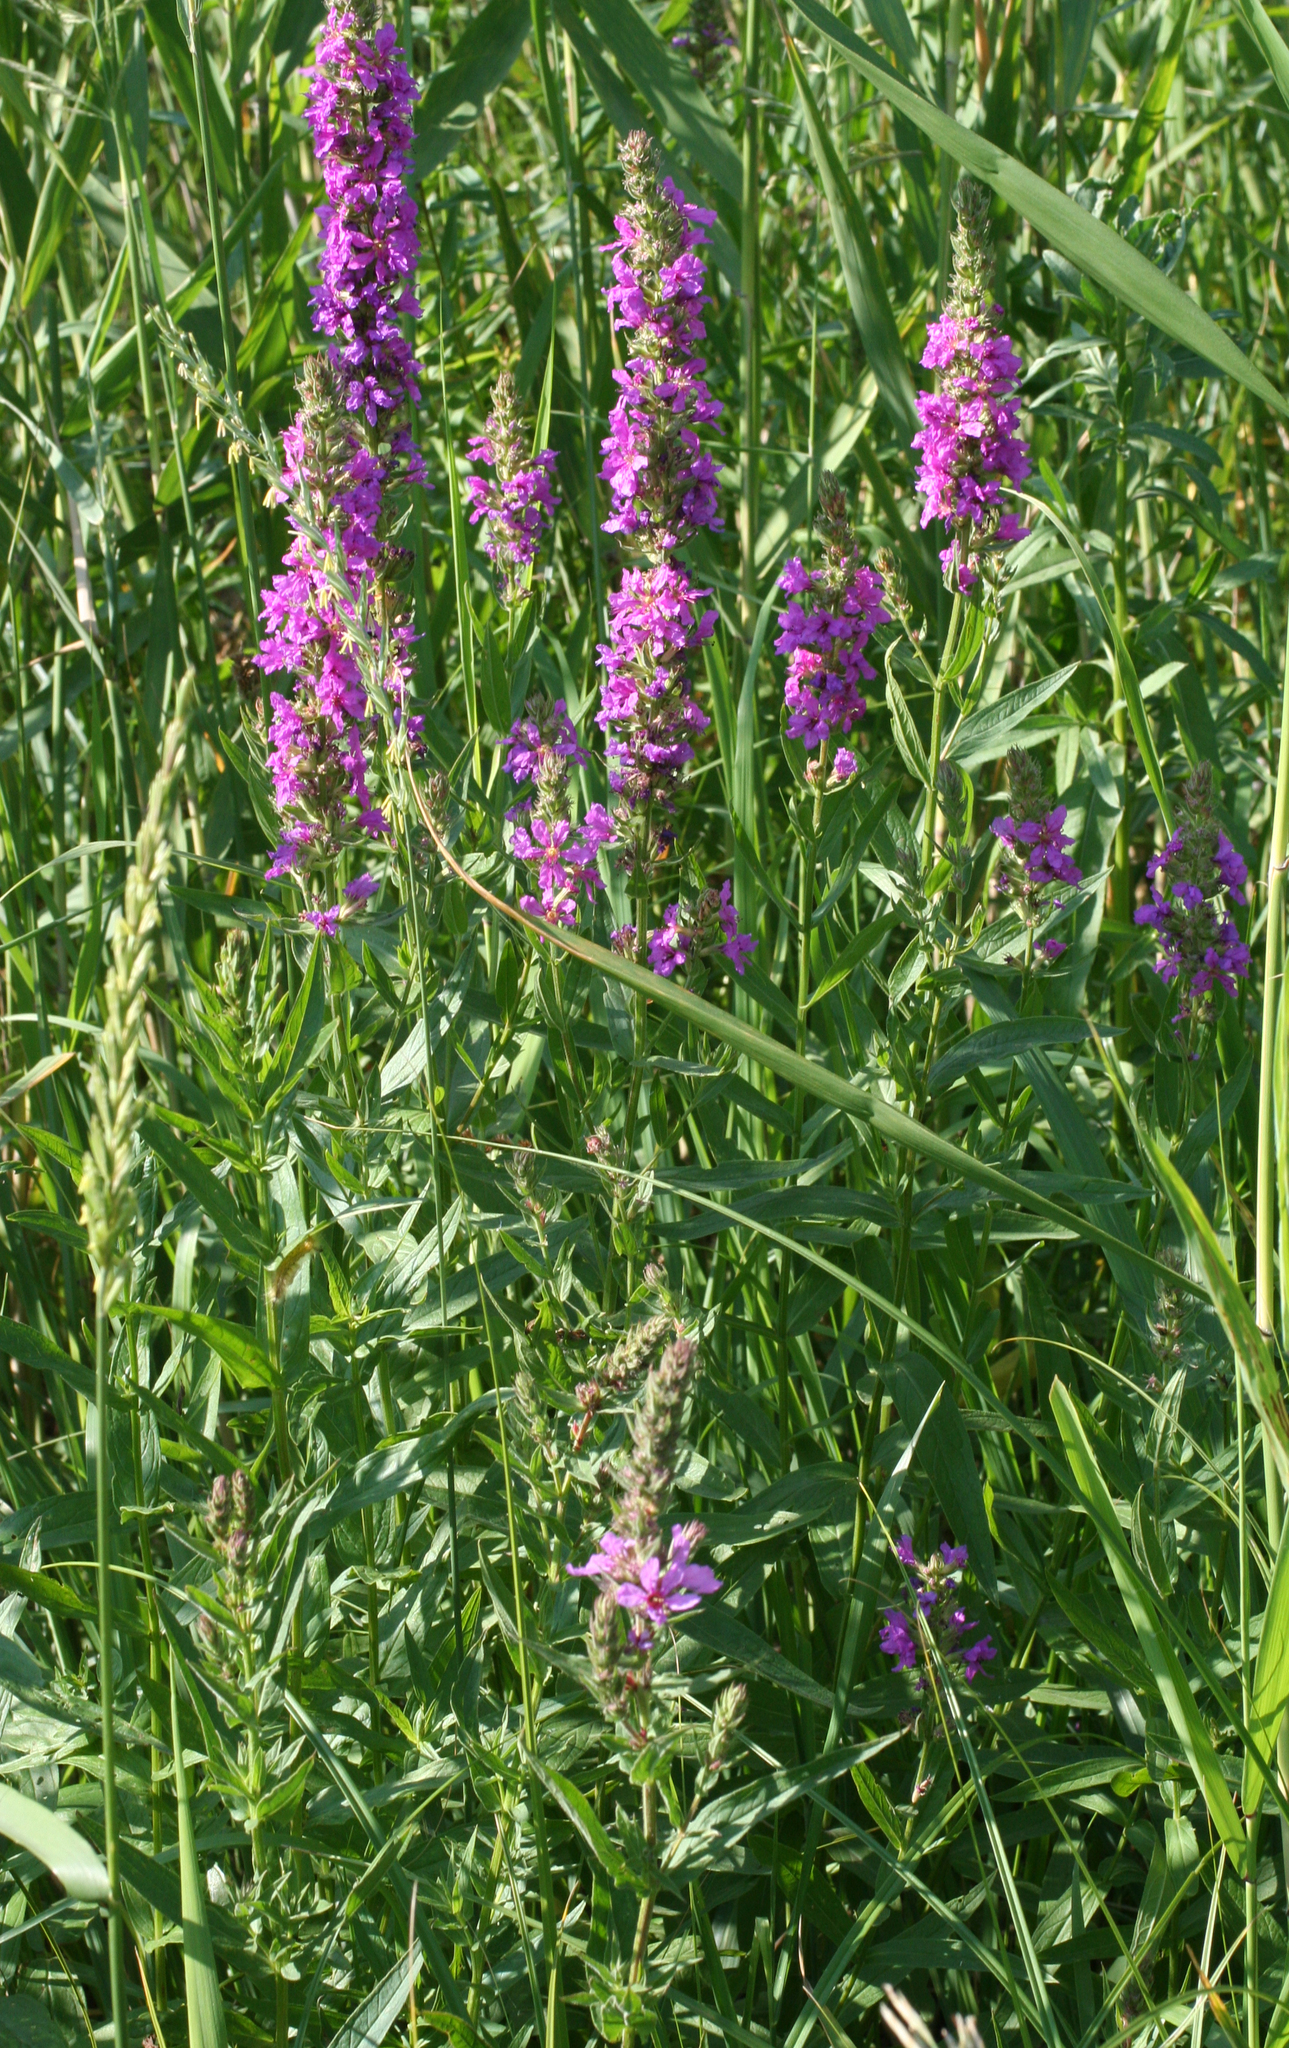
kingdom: Plantae
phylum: Tracheophyta
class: Magnoliopsida
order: Myrtales
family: Lythraceae
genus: Lythrum
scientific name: Lythrum salicaria
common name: Purple loosestrife
